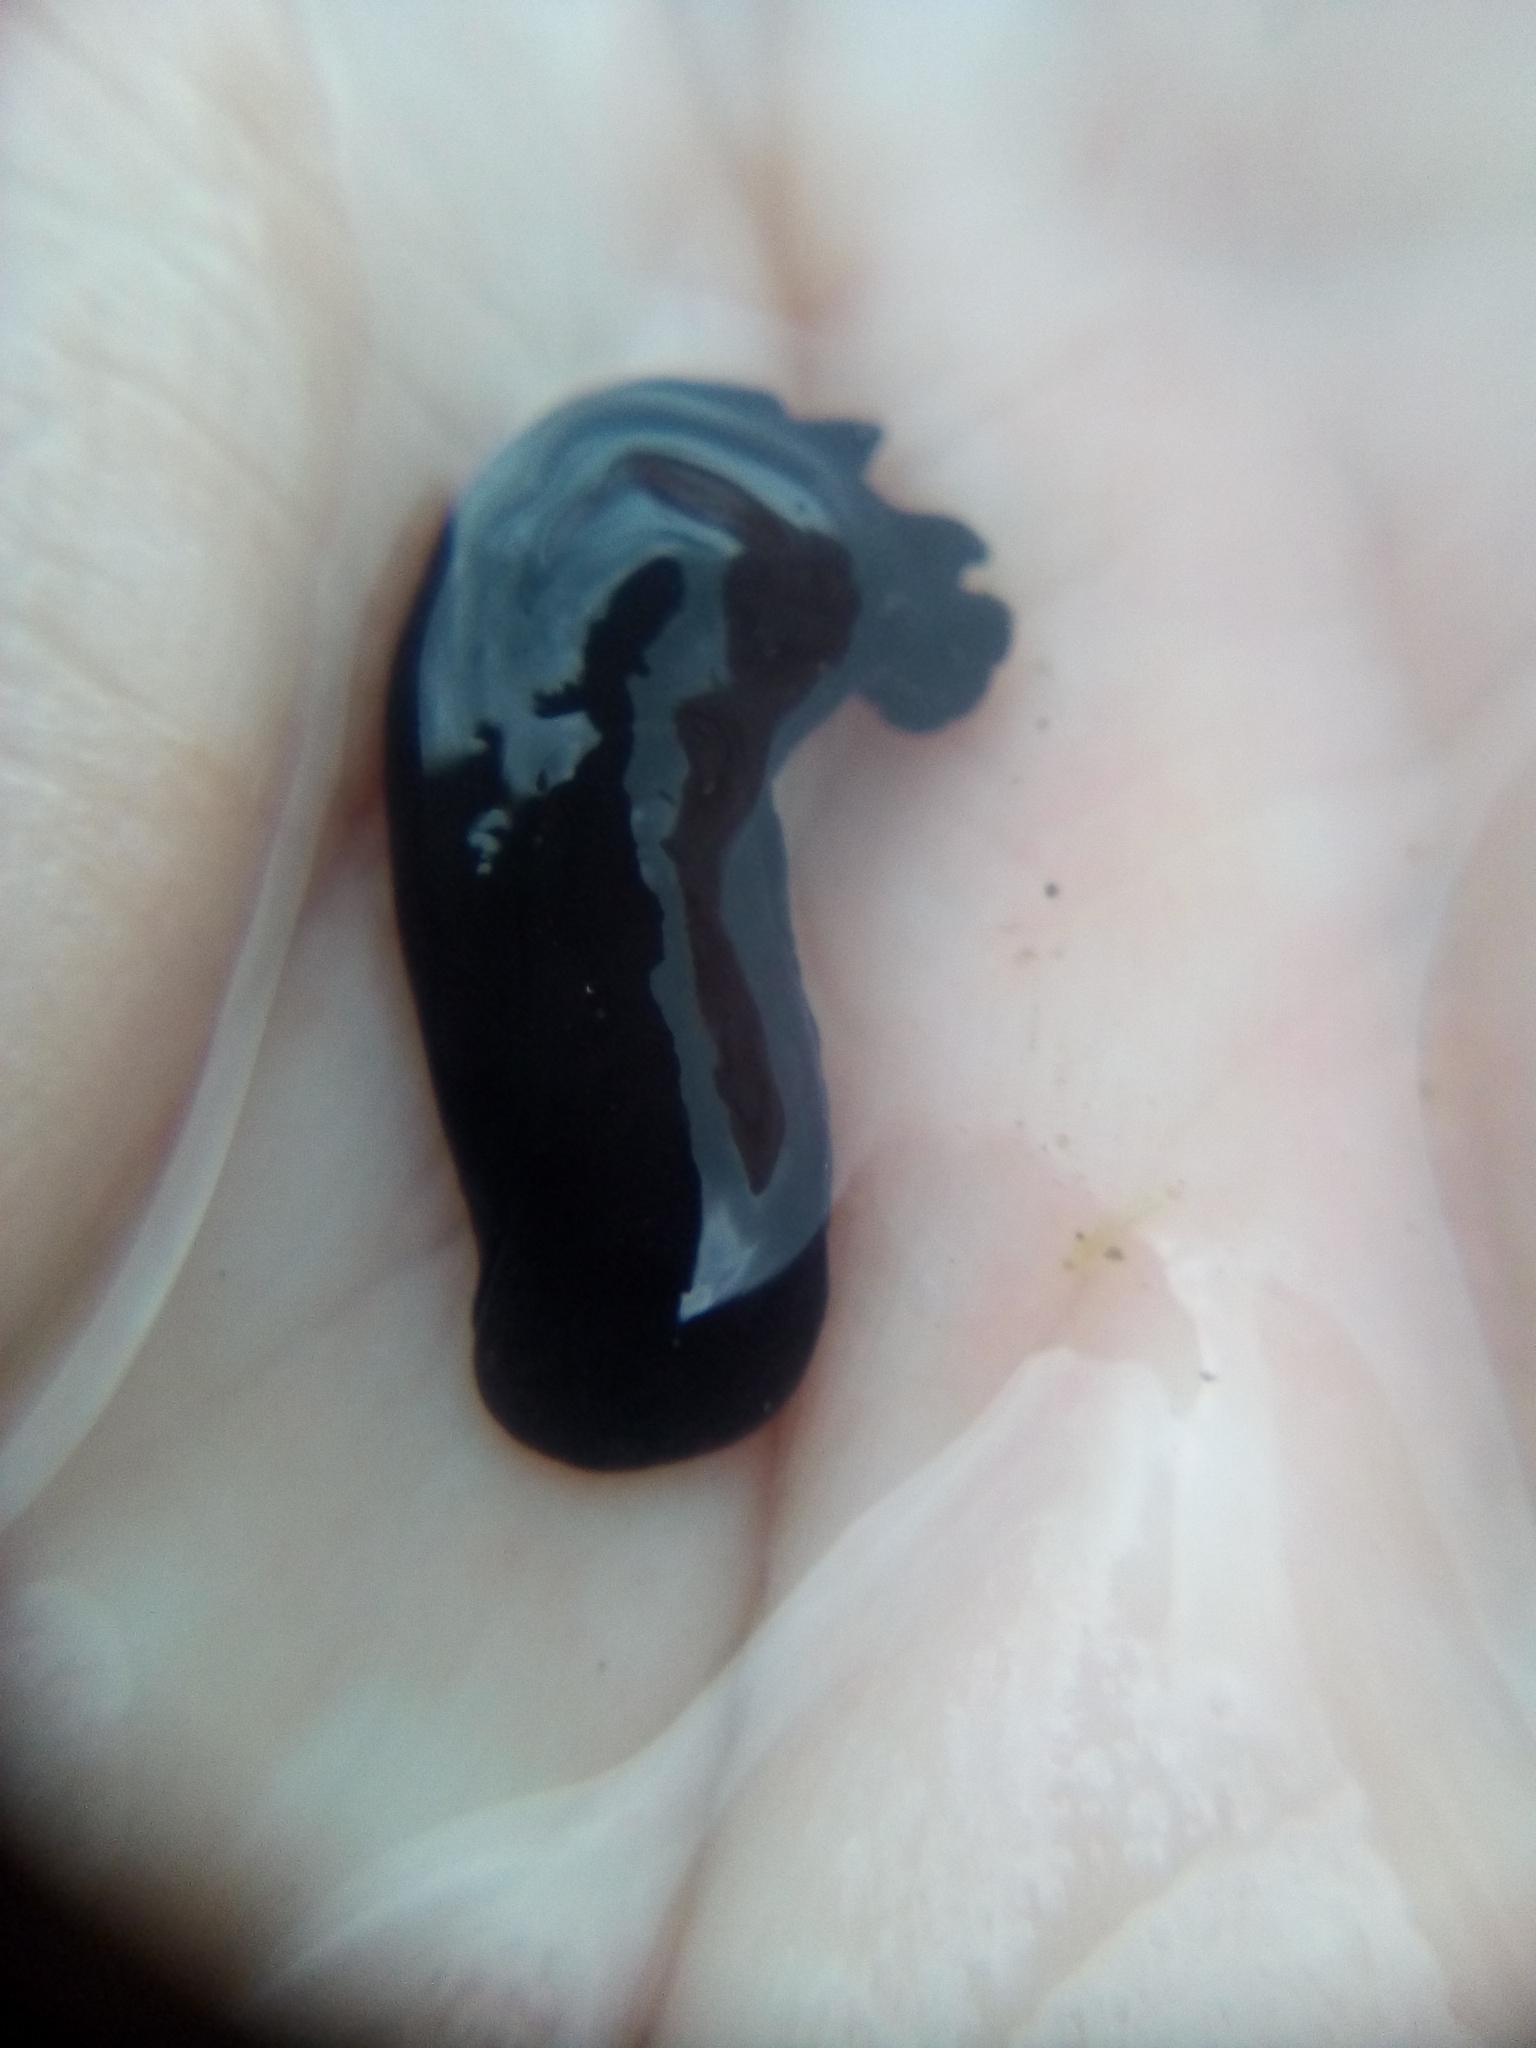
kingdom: Animalia
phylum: Mollusca
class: Gastropoda
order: Cephalaspidea
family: Aglajidae
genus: Melanochlamys
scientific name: Melanochlamys cylindrica
